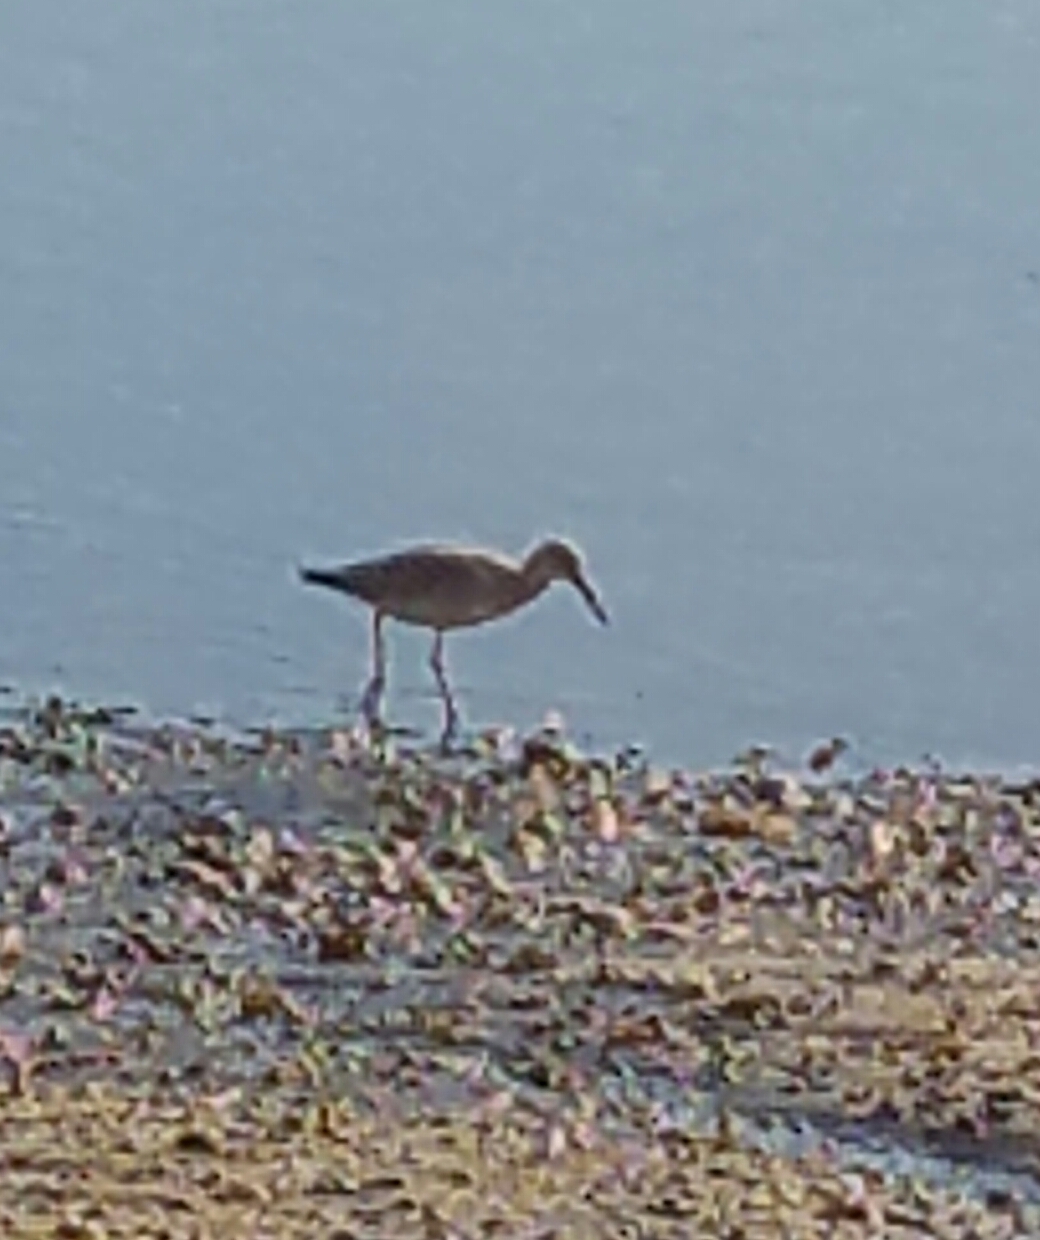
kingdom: Animalia
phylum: Chordata
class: Aves
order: Charadriiformes
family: Scolopacidae
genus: Tringa
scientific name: Tringa semipalmata
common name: Willet
